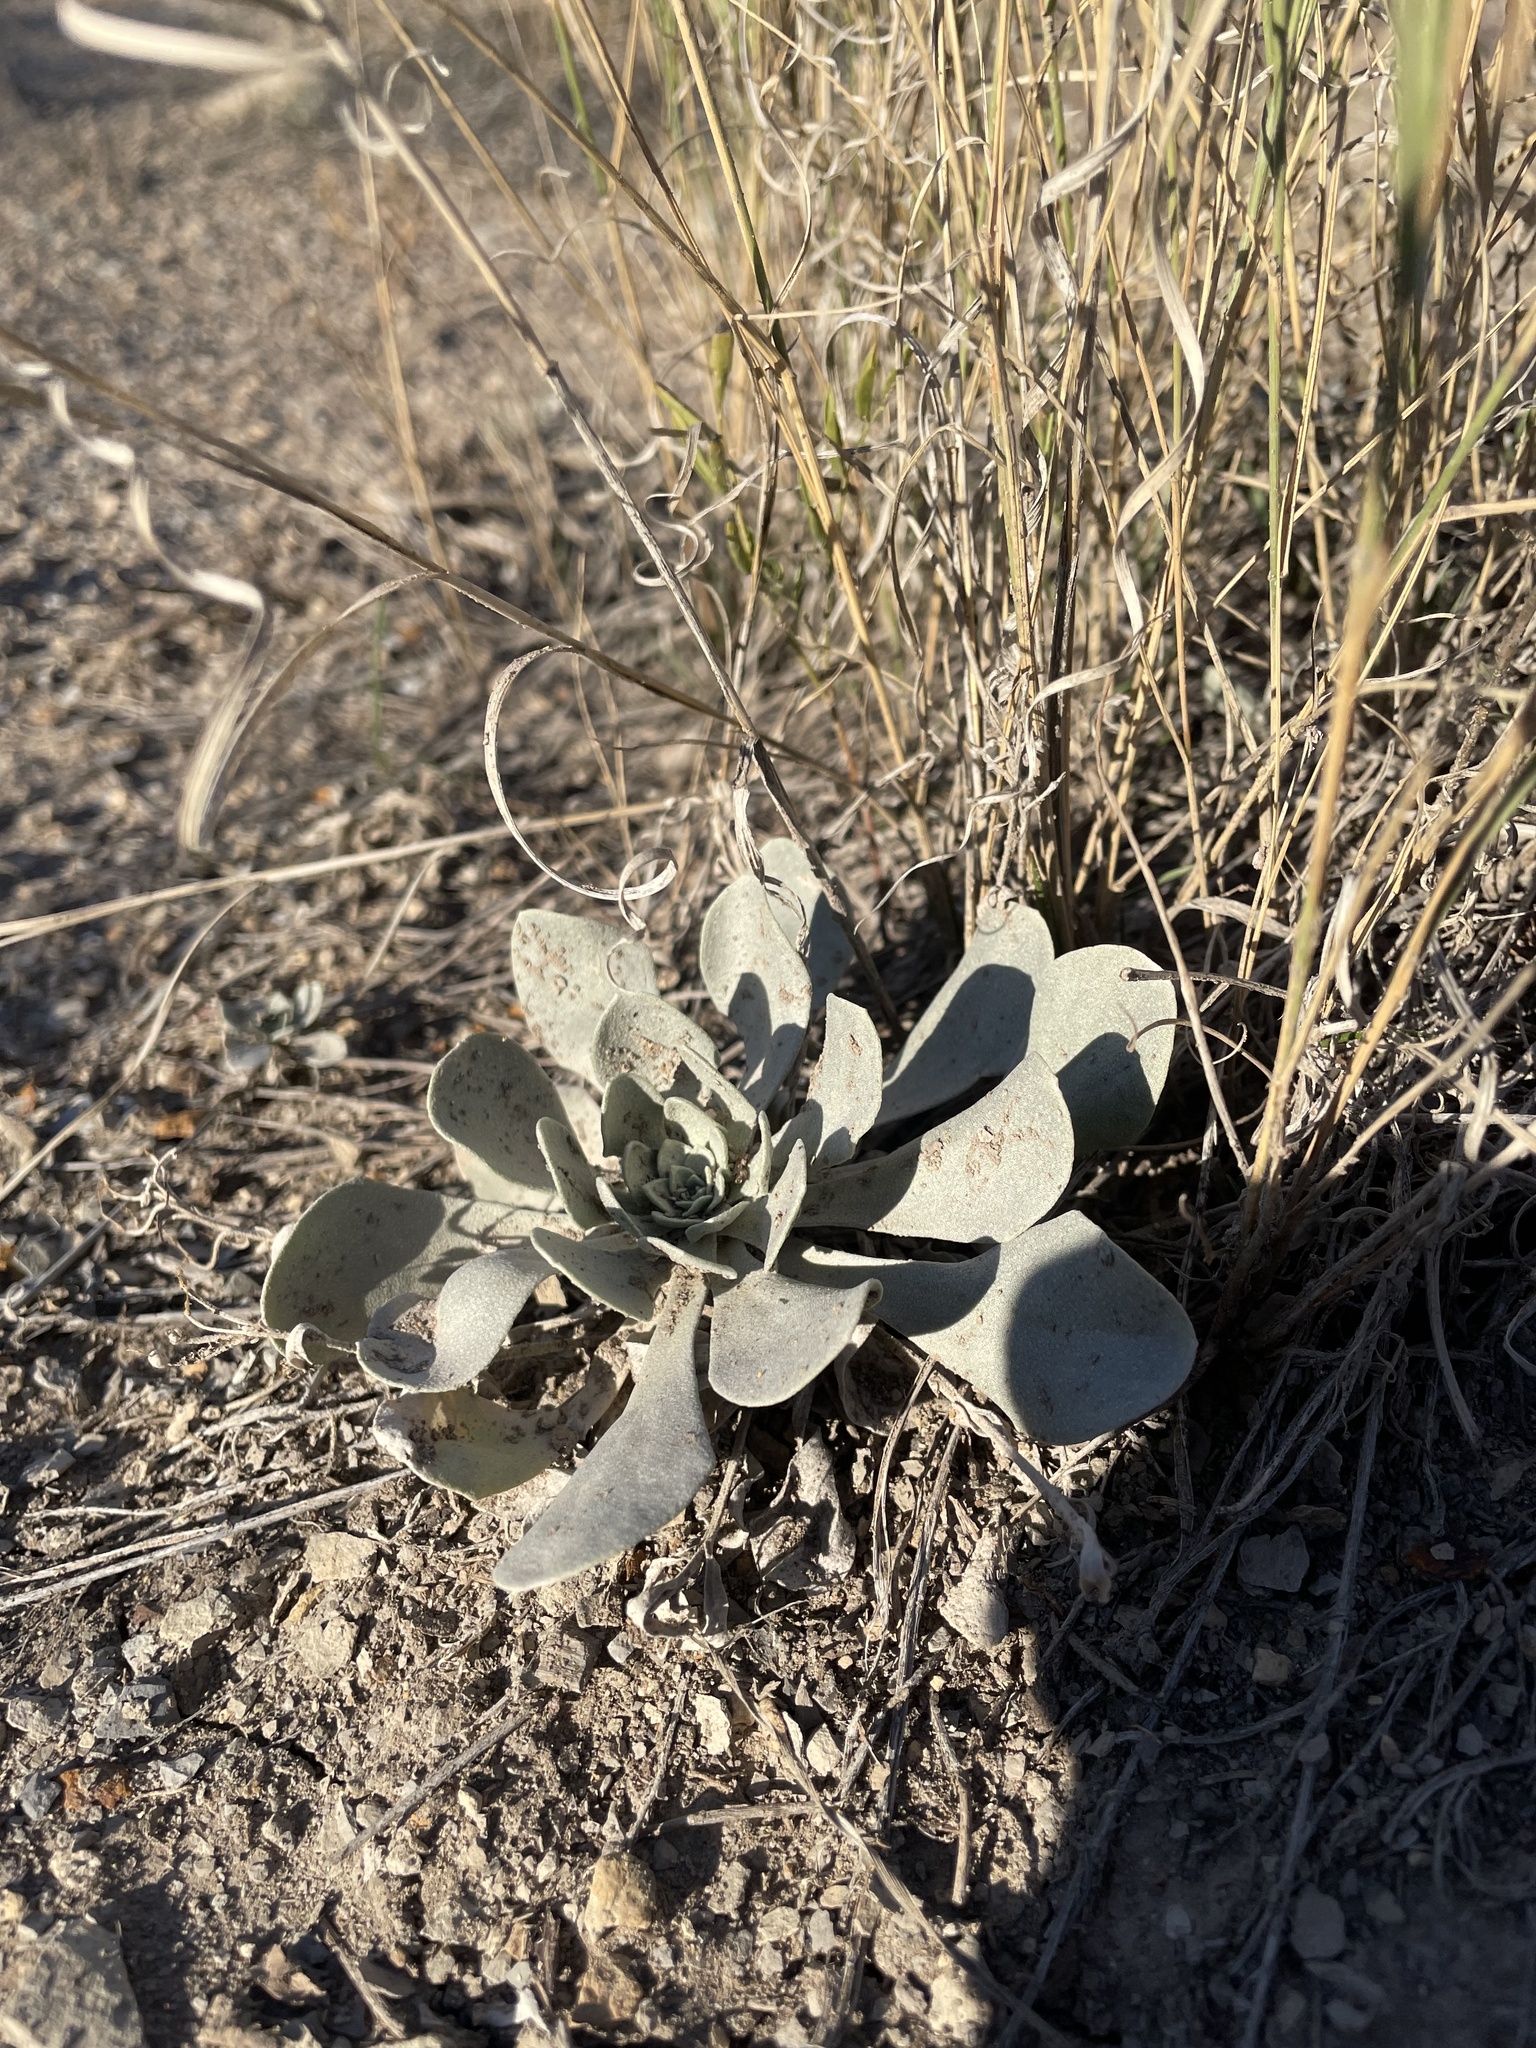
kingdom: Plantae
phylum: Tracheophyta
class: Magnoliopsida
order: Brassicales
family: Brassicaceae
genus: Physaria
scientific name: Physaria bellii
